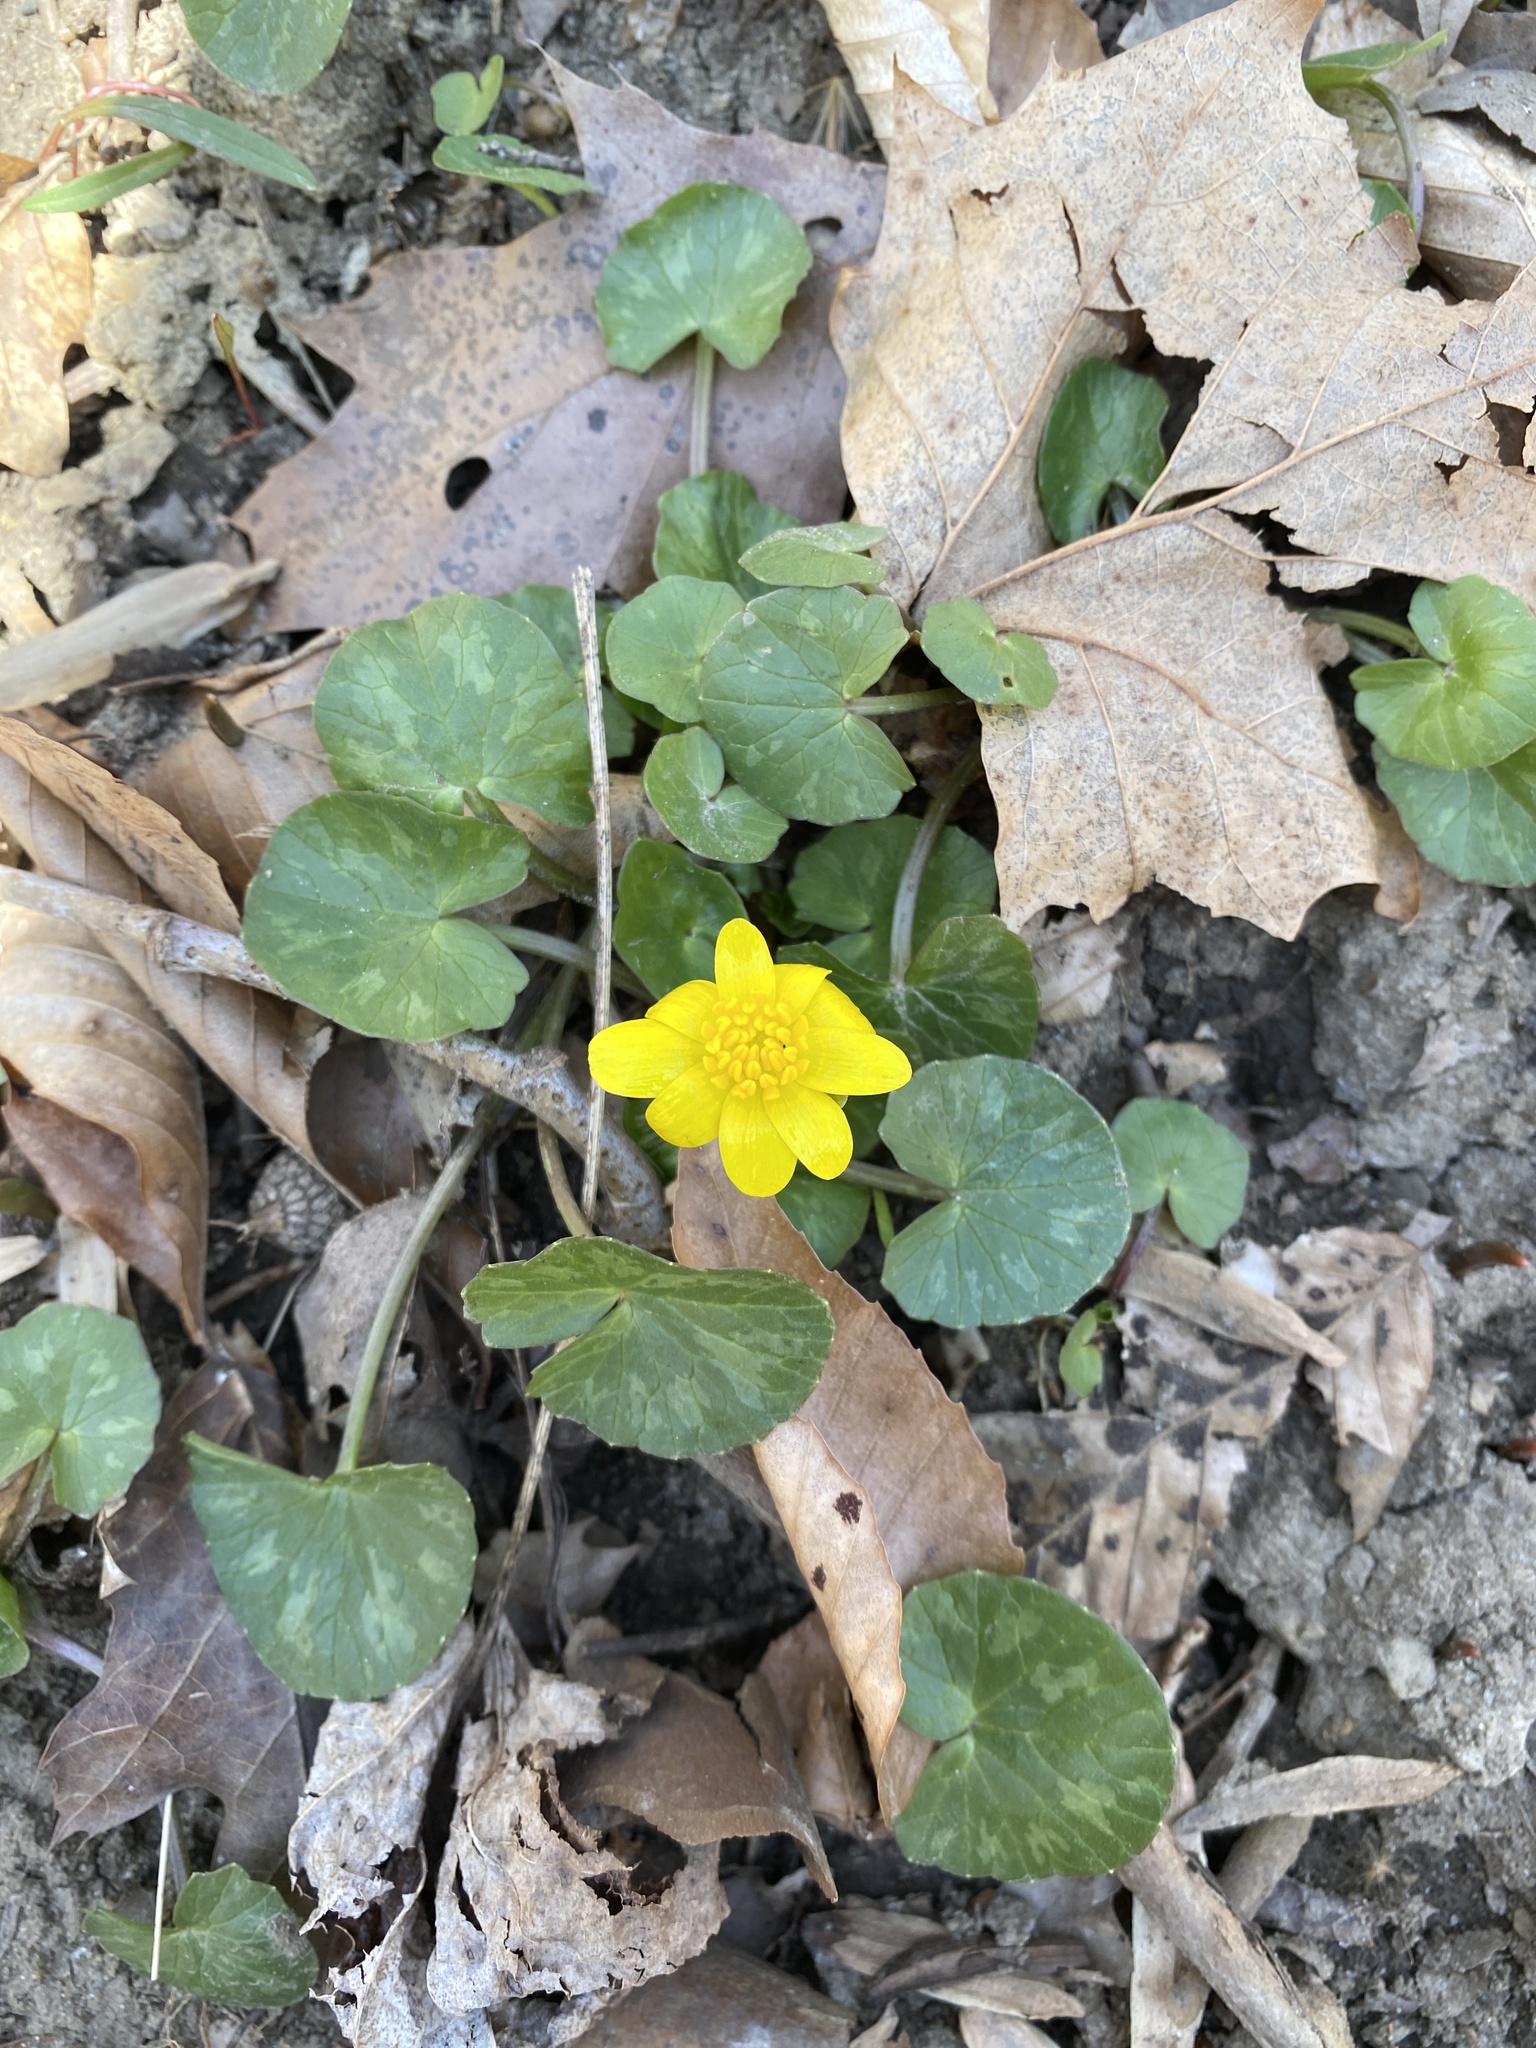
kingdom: Plantae
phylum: Tracheophyta
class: Magnoliopsida
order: Ranunculales
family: Ranunculaceae
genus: Ficaria
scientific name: Ficaria verna
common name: Lesser celandine
